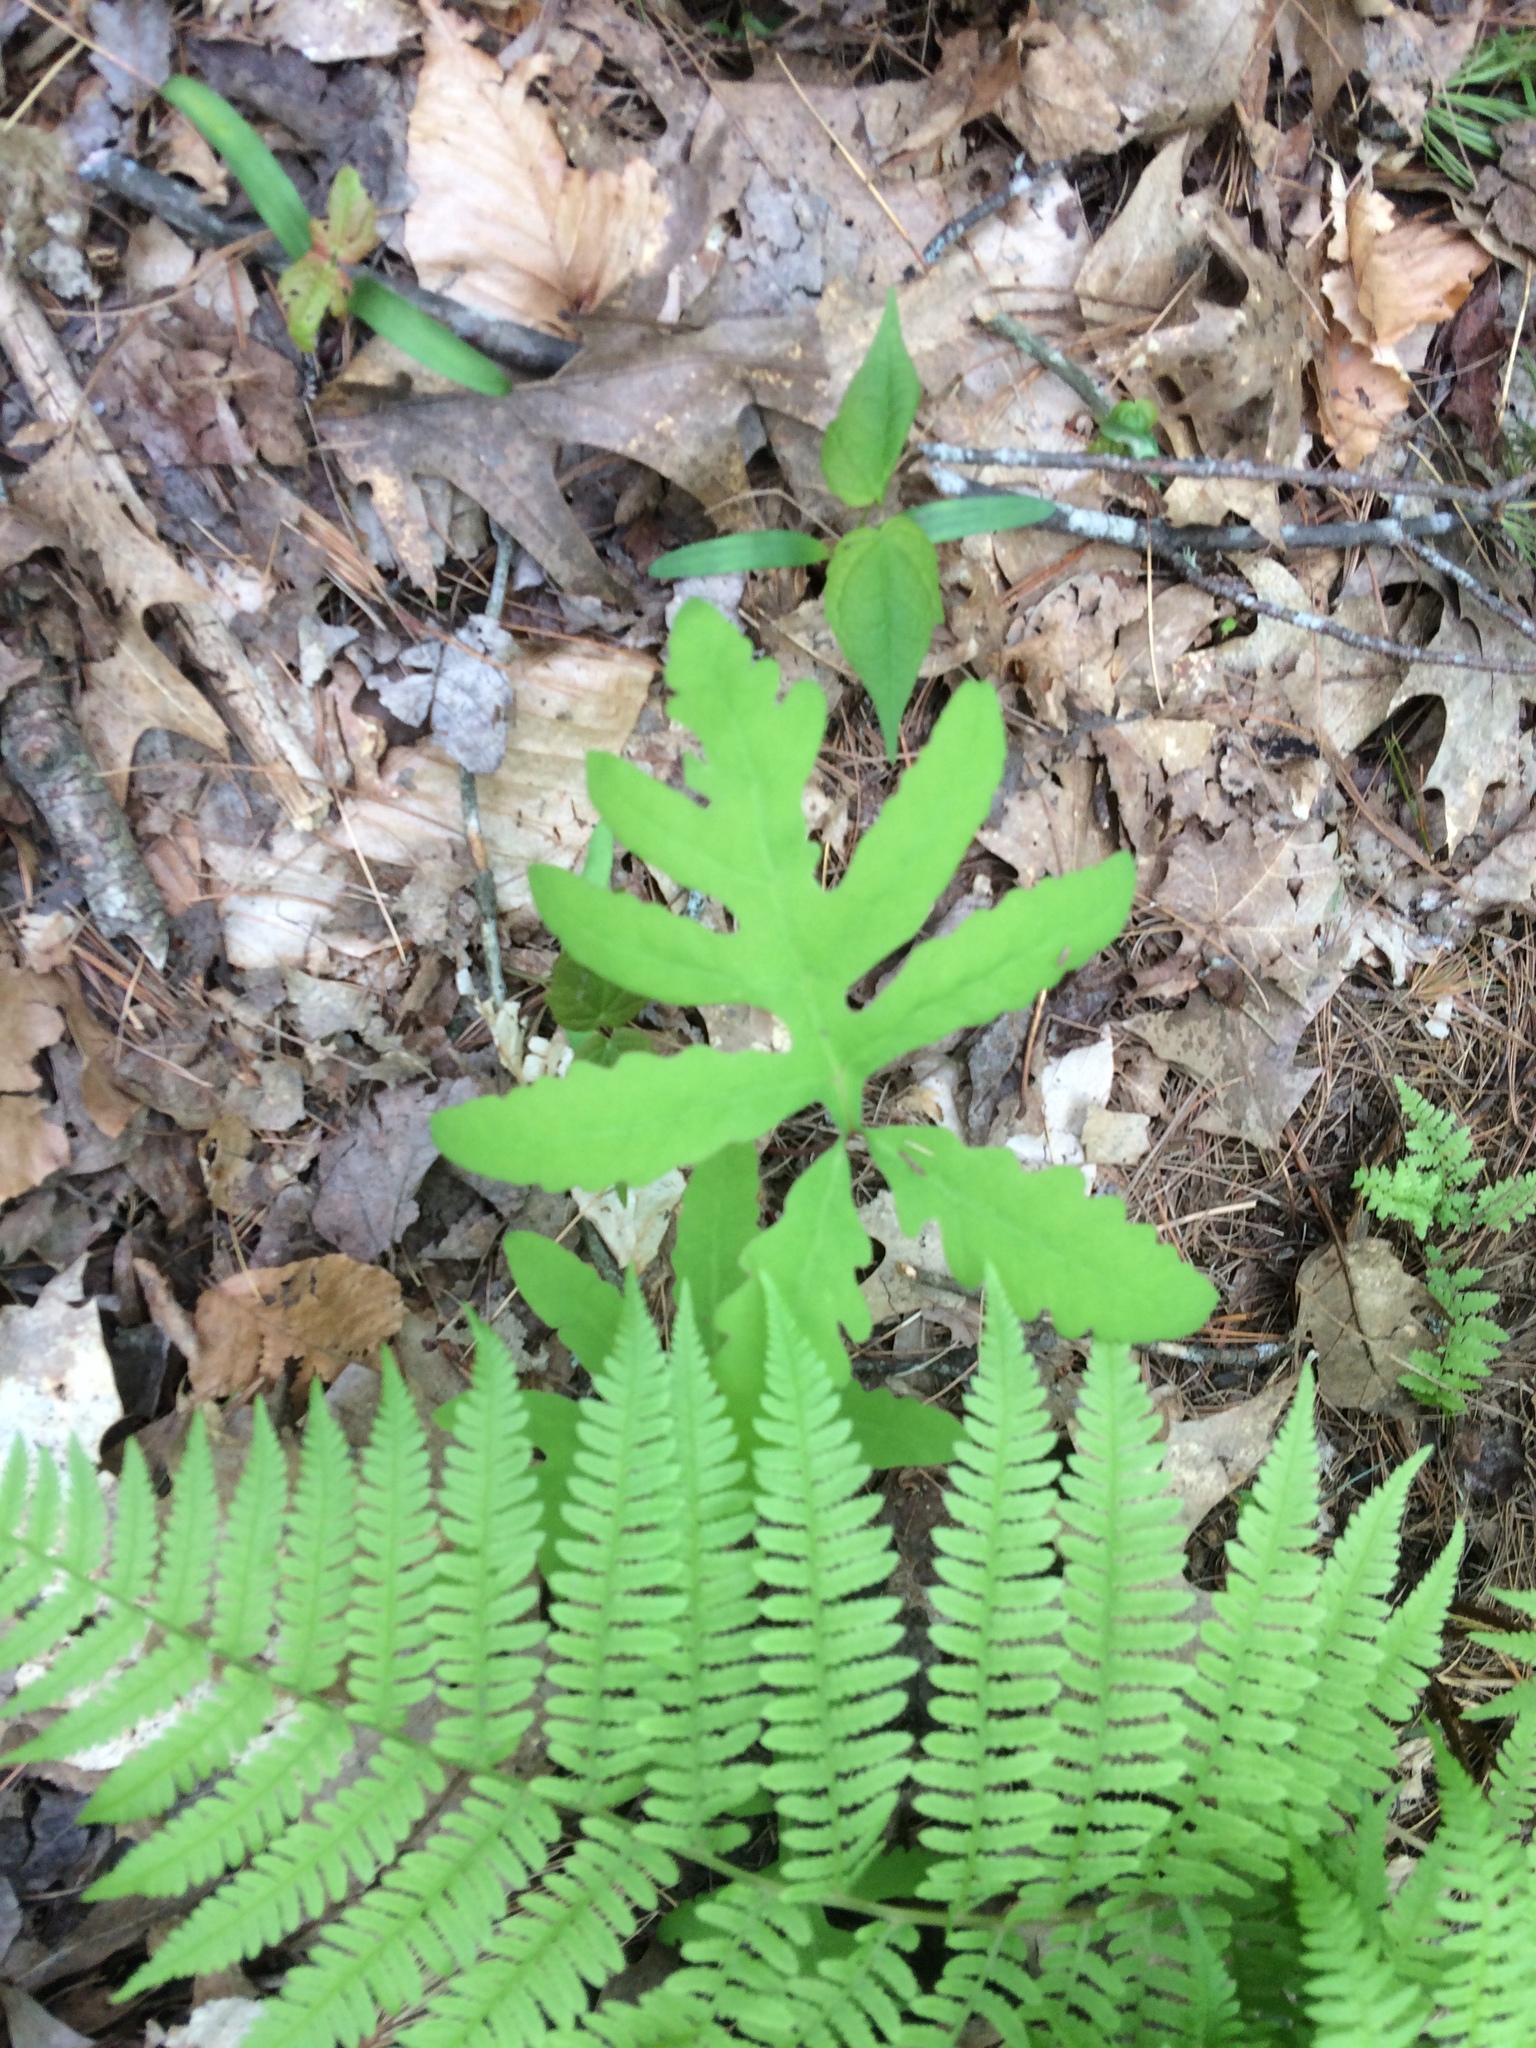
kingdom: Plantae
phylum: Tracheophyta
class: Polypodiopsida
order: Polypodiales
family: Onocleaceae
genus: Onoclea
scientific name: Onoclea sensibilis
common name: Sensitive fern
